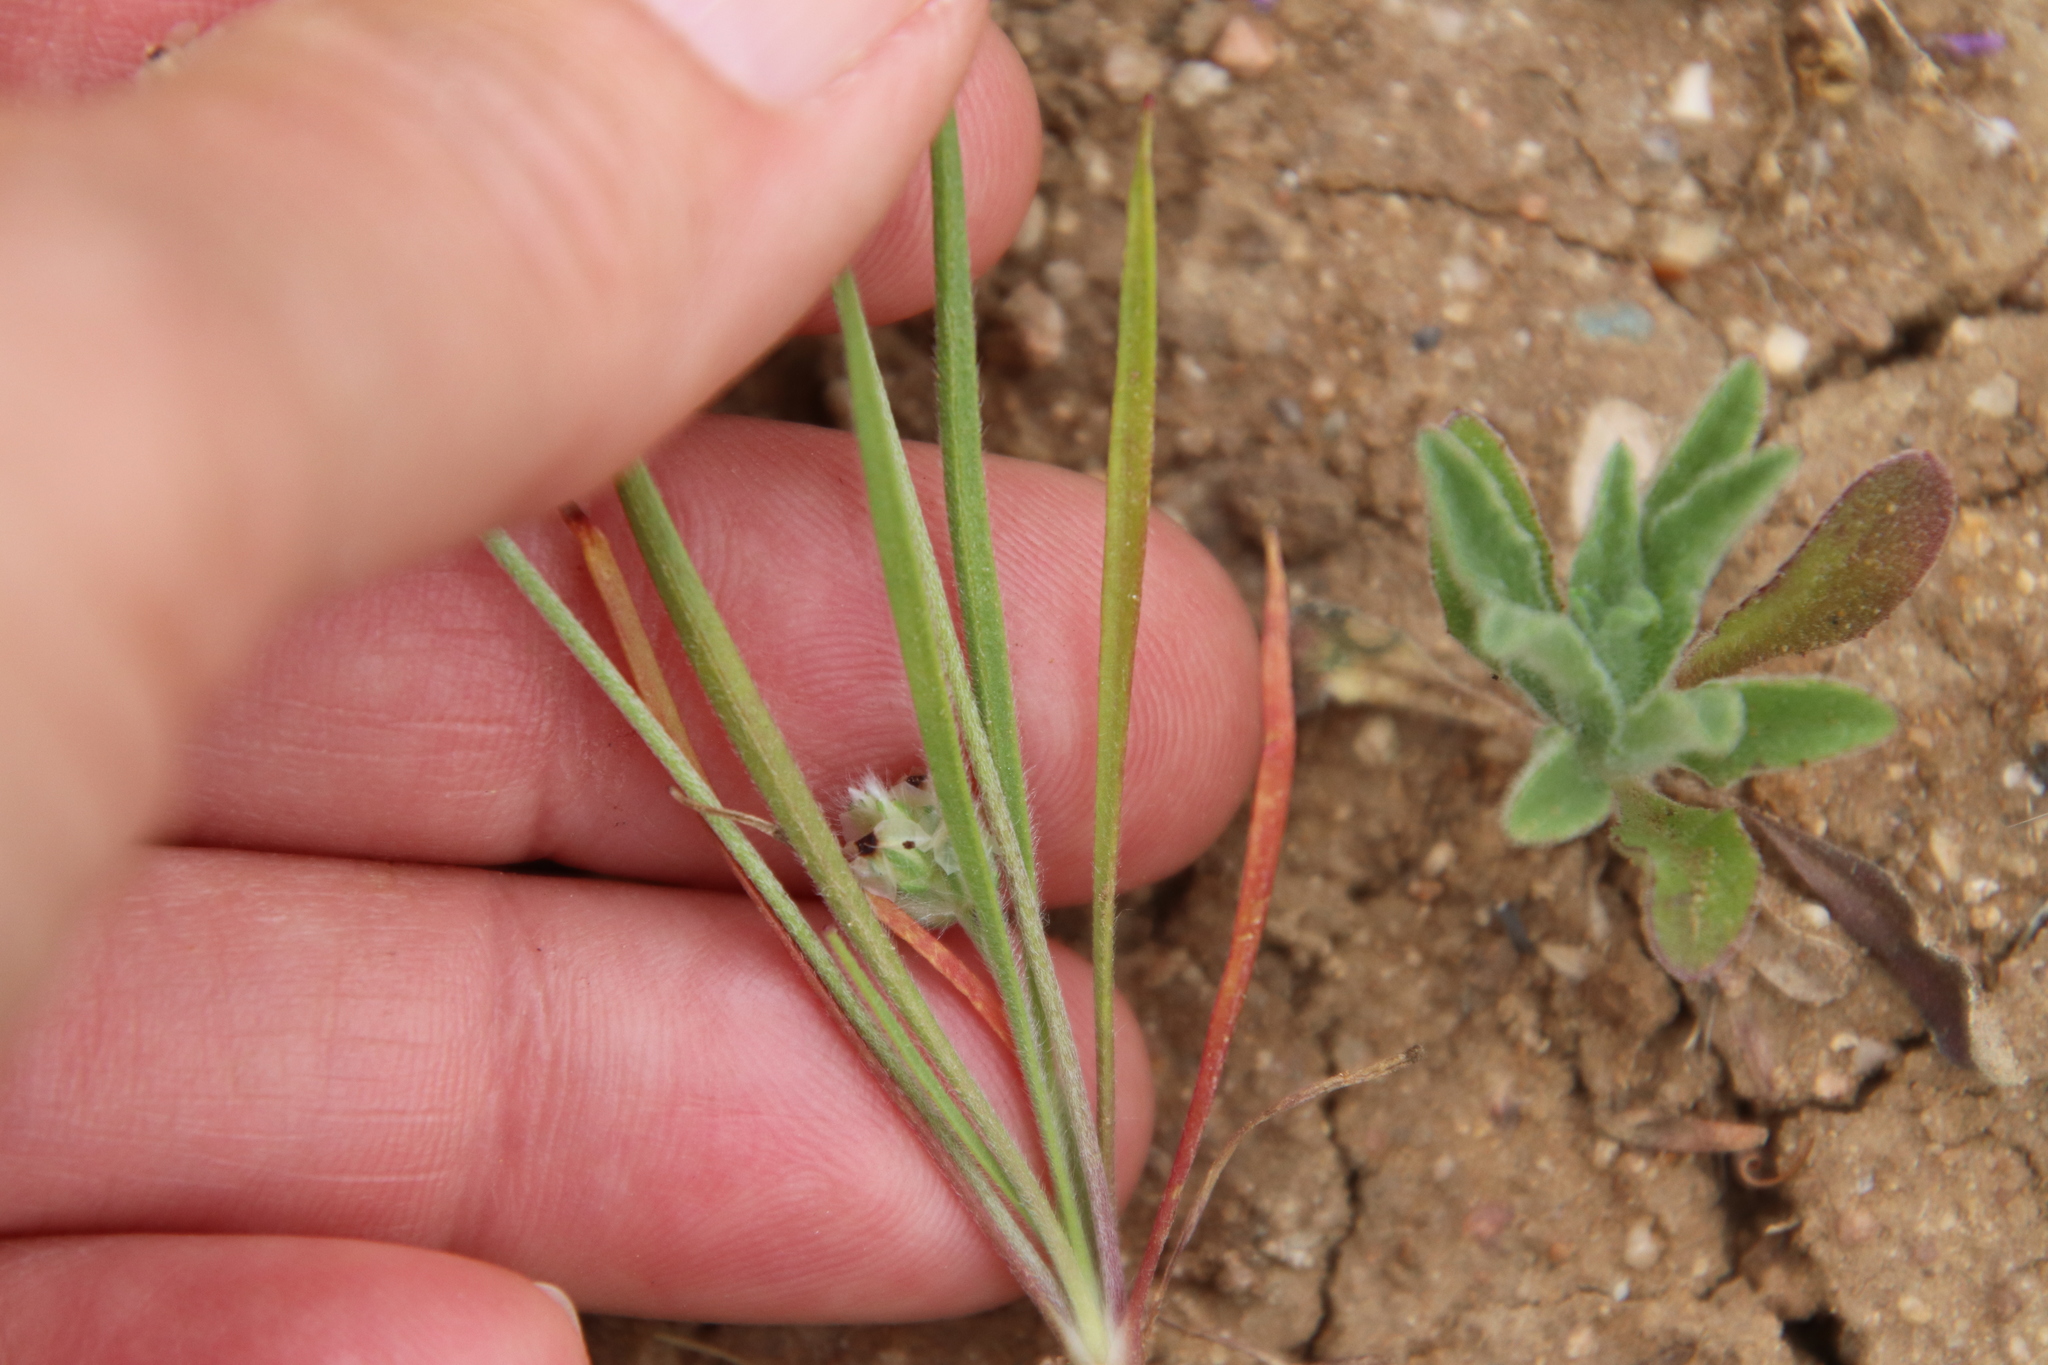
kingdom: Plantae
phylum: Tracheophyta
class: Magnoliopsida
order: Lamiales
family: Plantaginaceae
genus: Plantago
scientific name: Plantago erecta
